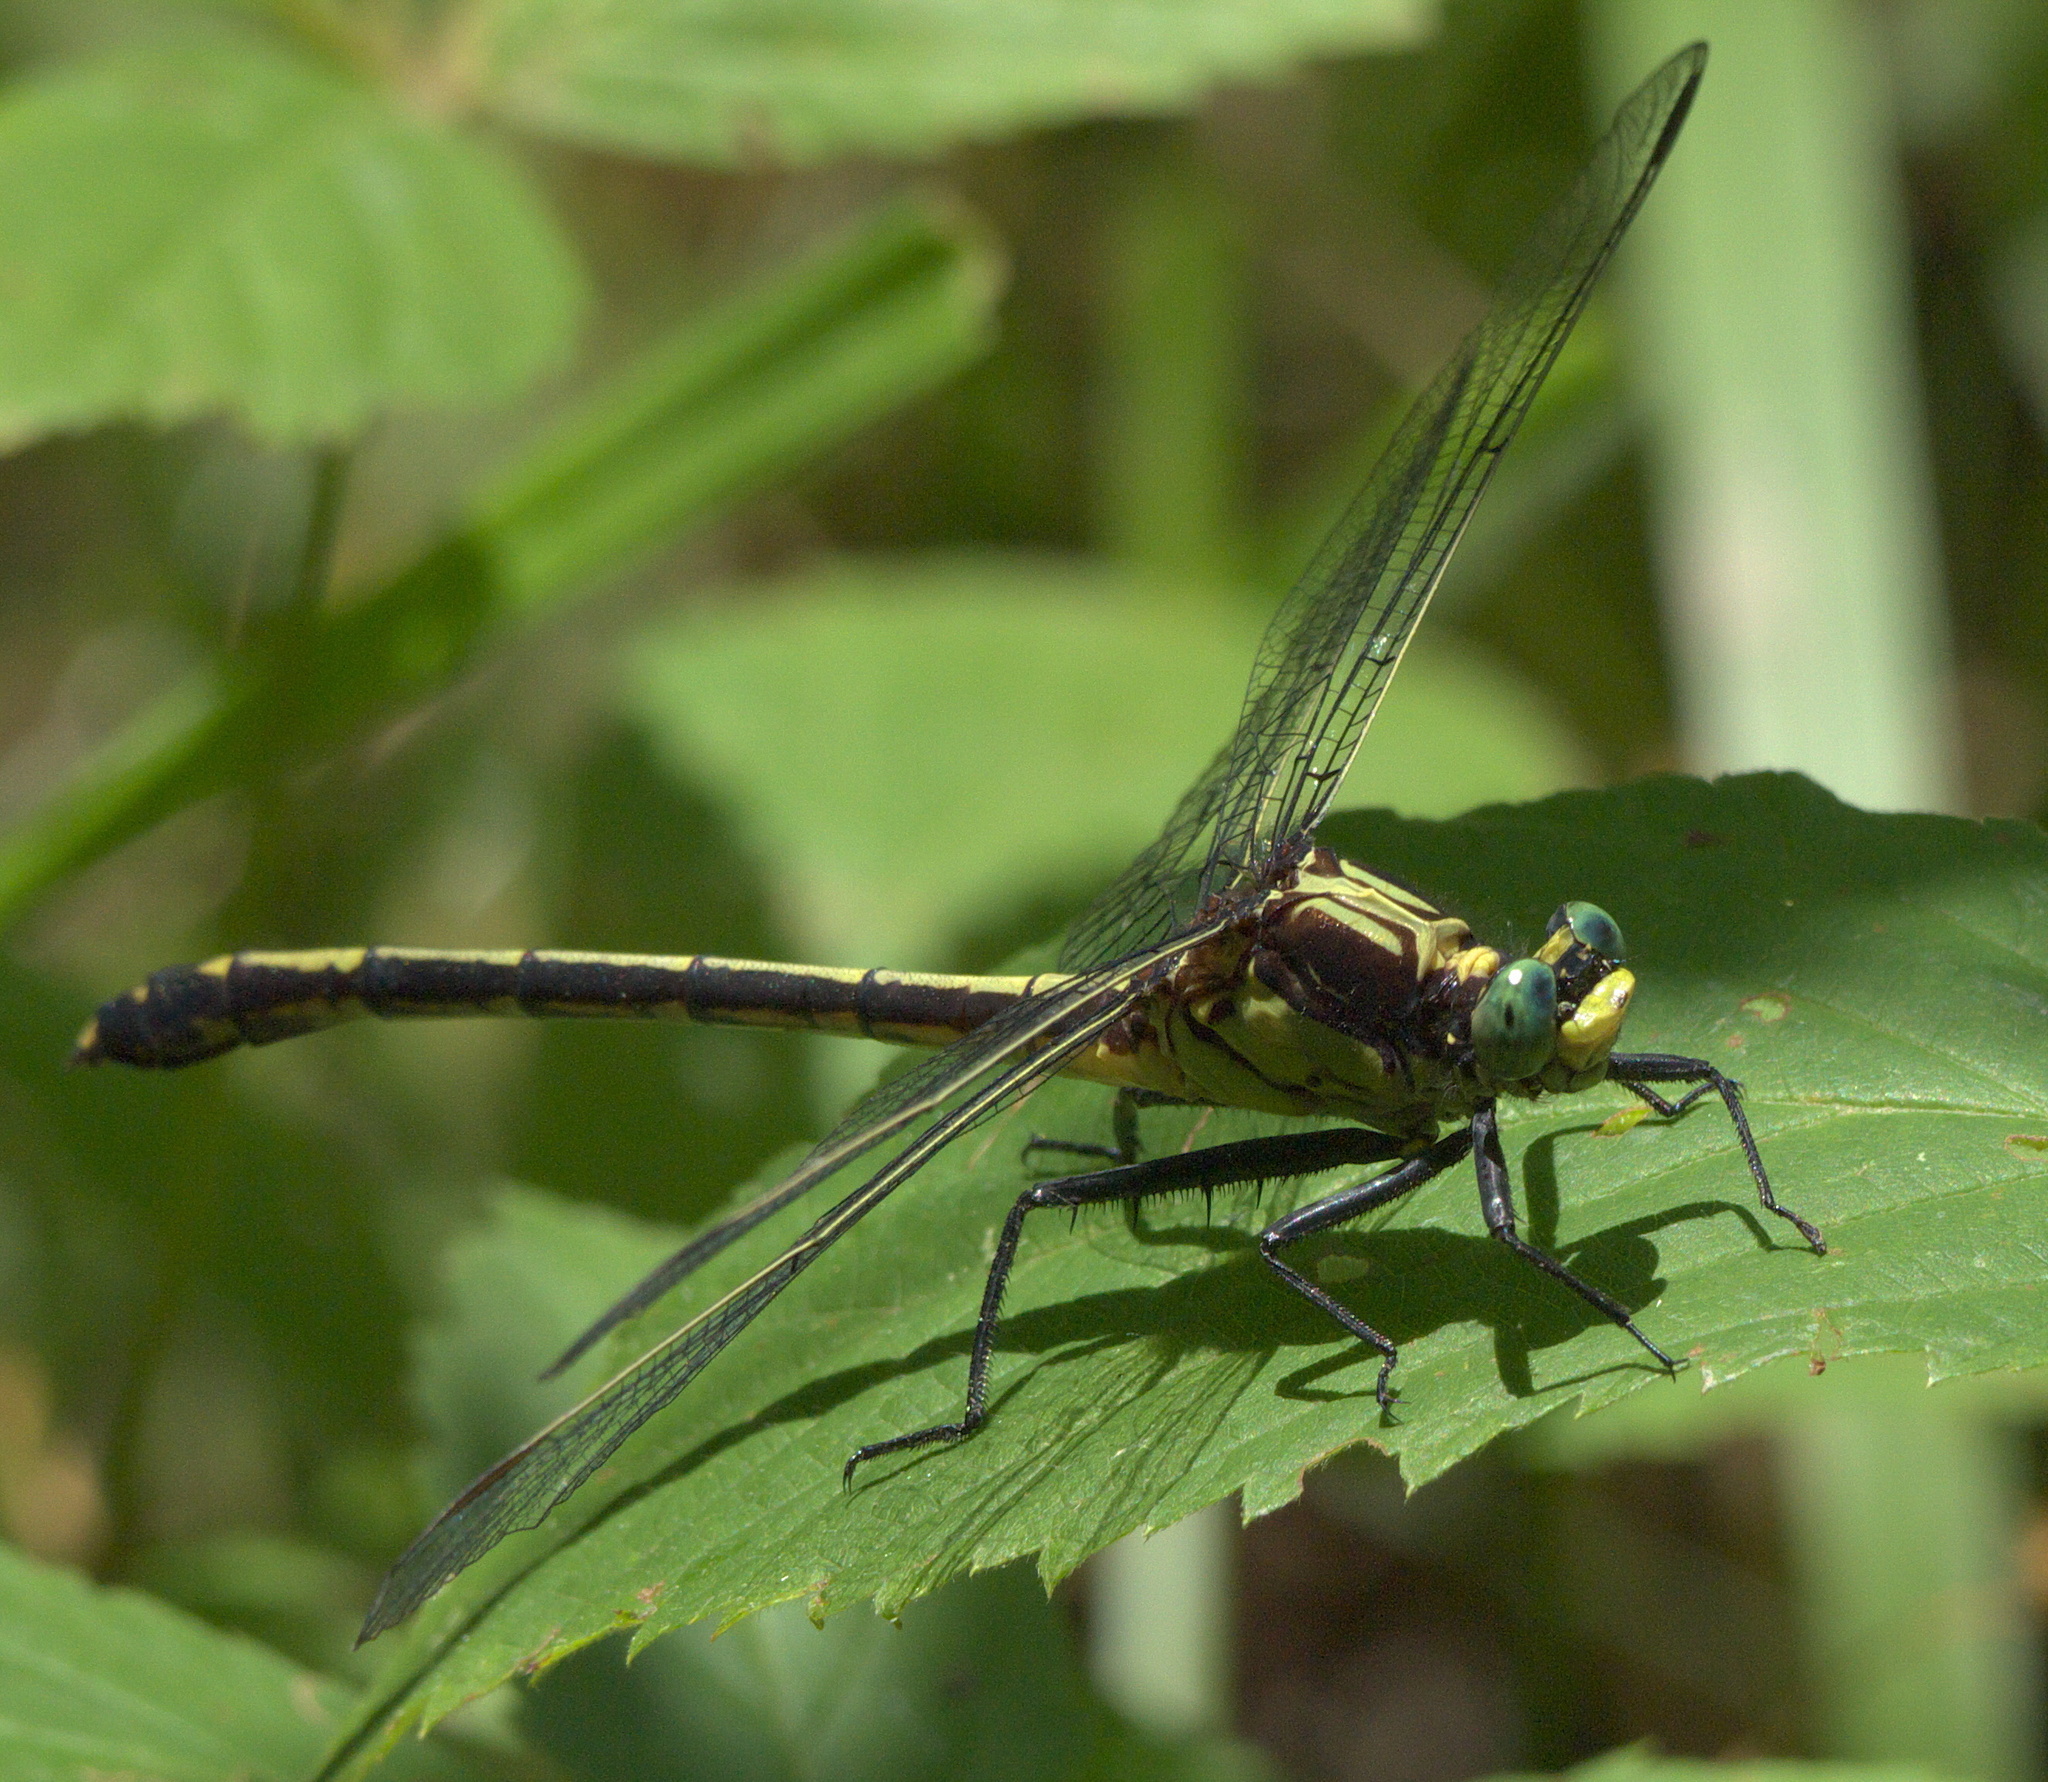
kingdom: Animalia
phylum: Arthropoda
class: Insecta
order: Odonata
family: Gomphidae
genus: Dromogomphus
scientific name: Dromogomphus spinosus
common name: Black-shouldered spinyleg
